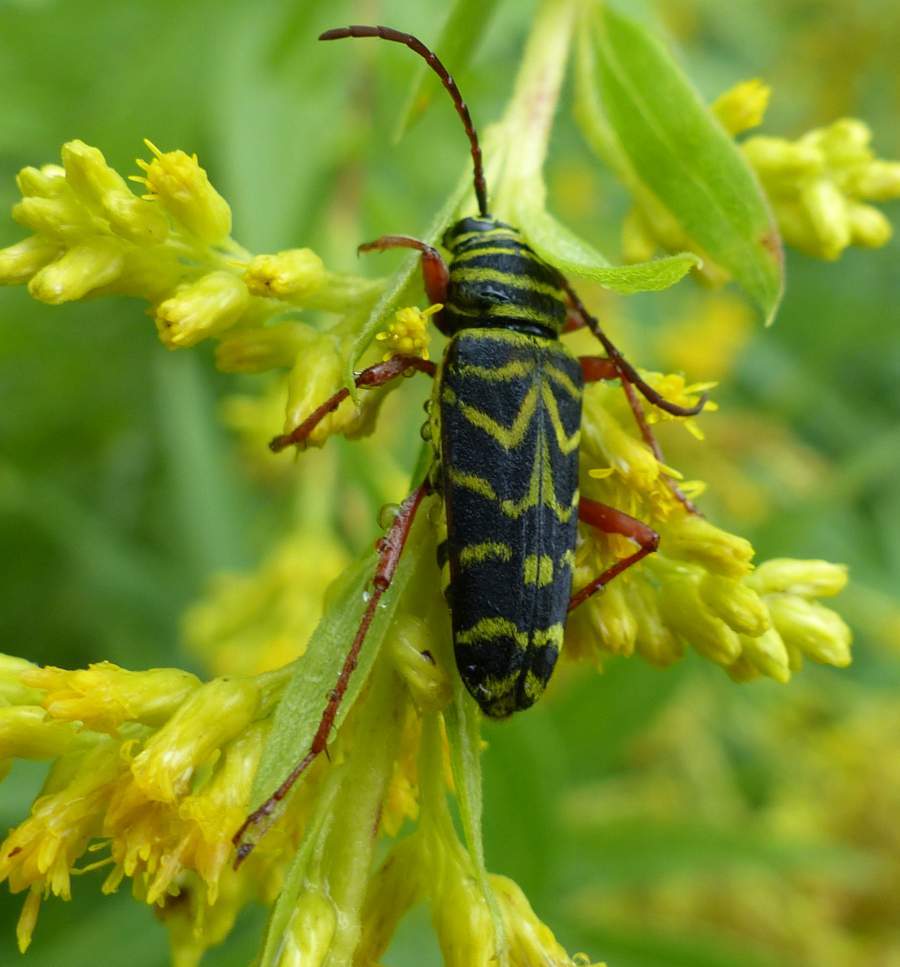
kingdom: Animalia
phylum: Arthropoda
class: Insecta
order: Coleoptera
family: Cerambycidae
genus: Megacyllene
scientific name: Megacyllene robiniae
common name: Locust borer
